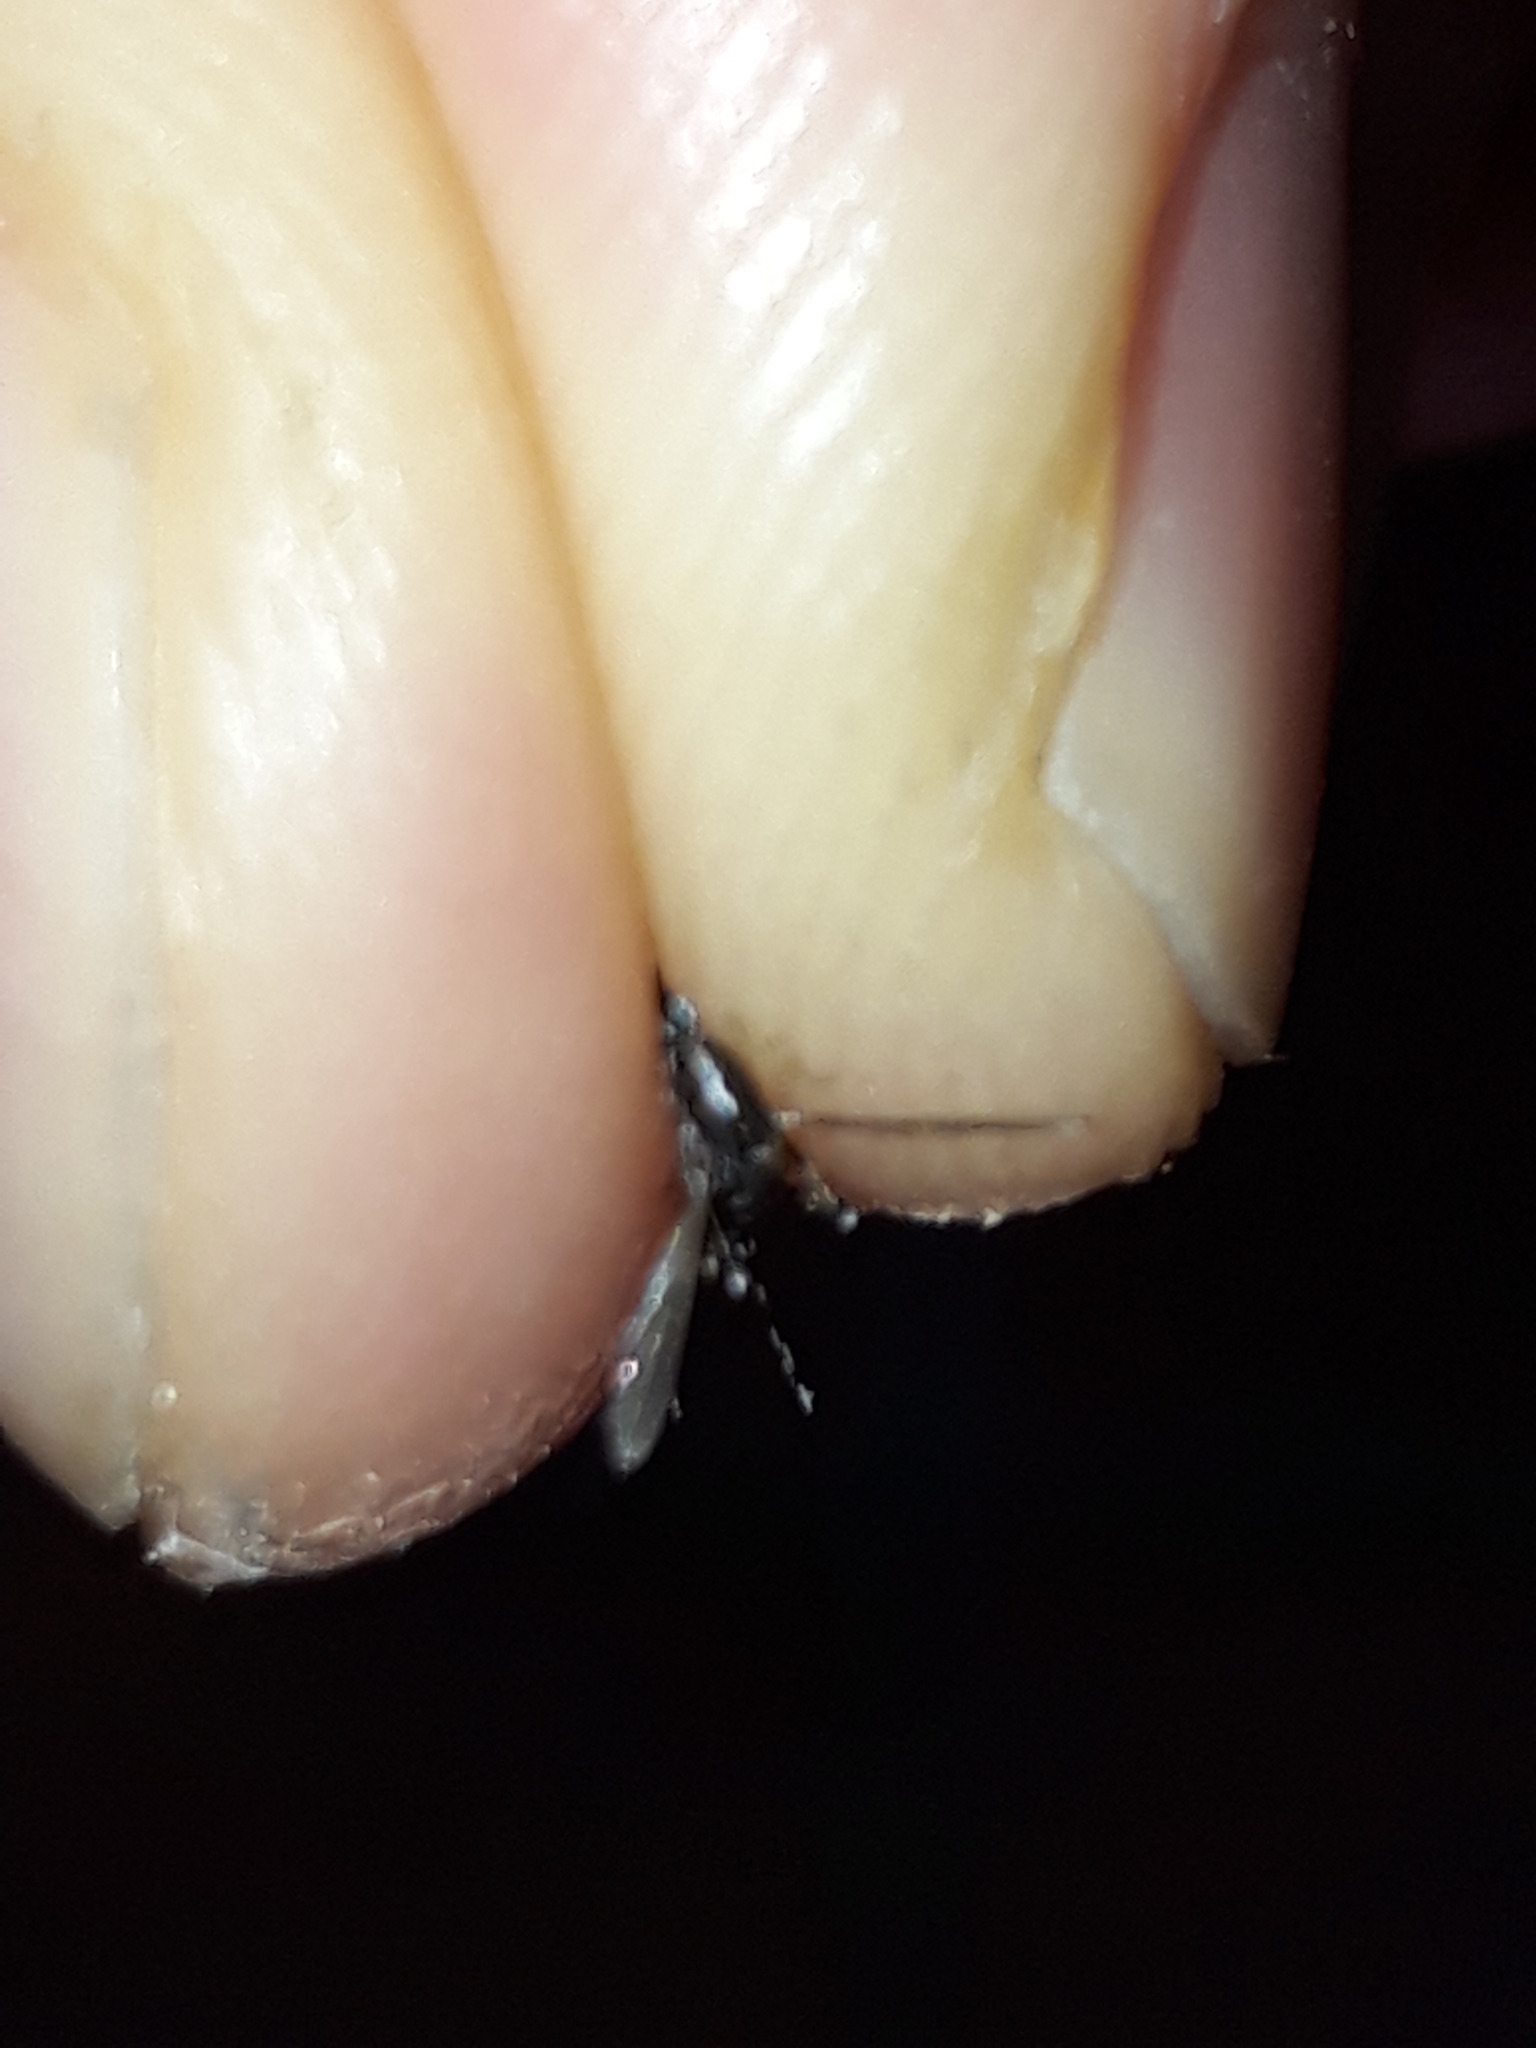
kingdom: Animalia
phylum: Arthropoda
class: Insecta
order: Diptera
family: Culicidae
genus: Aedes
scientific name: Aedes albopictus
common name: Tiger mosquito
